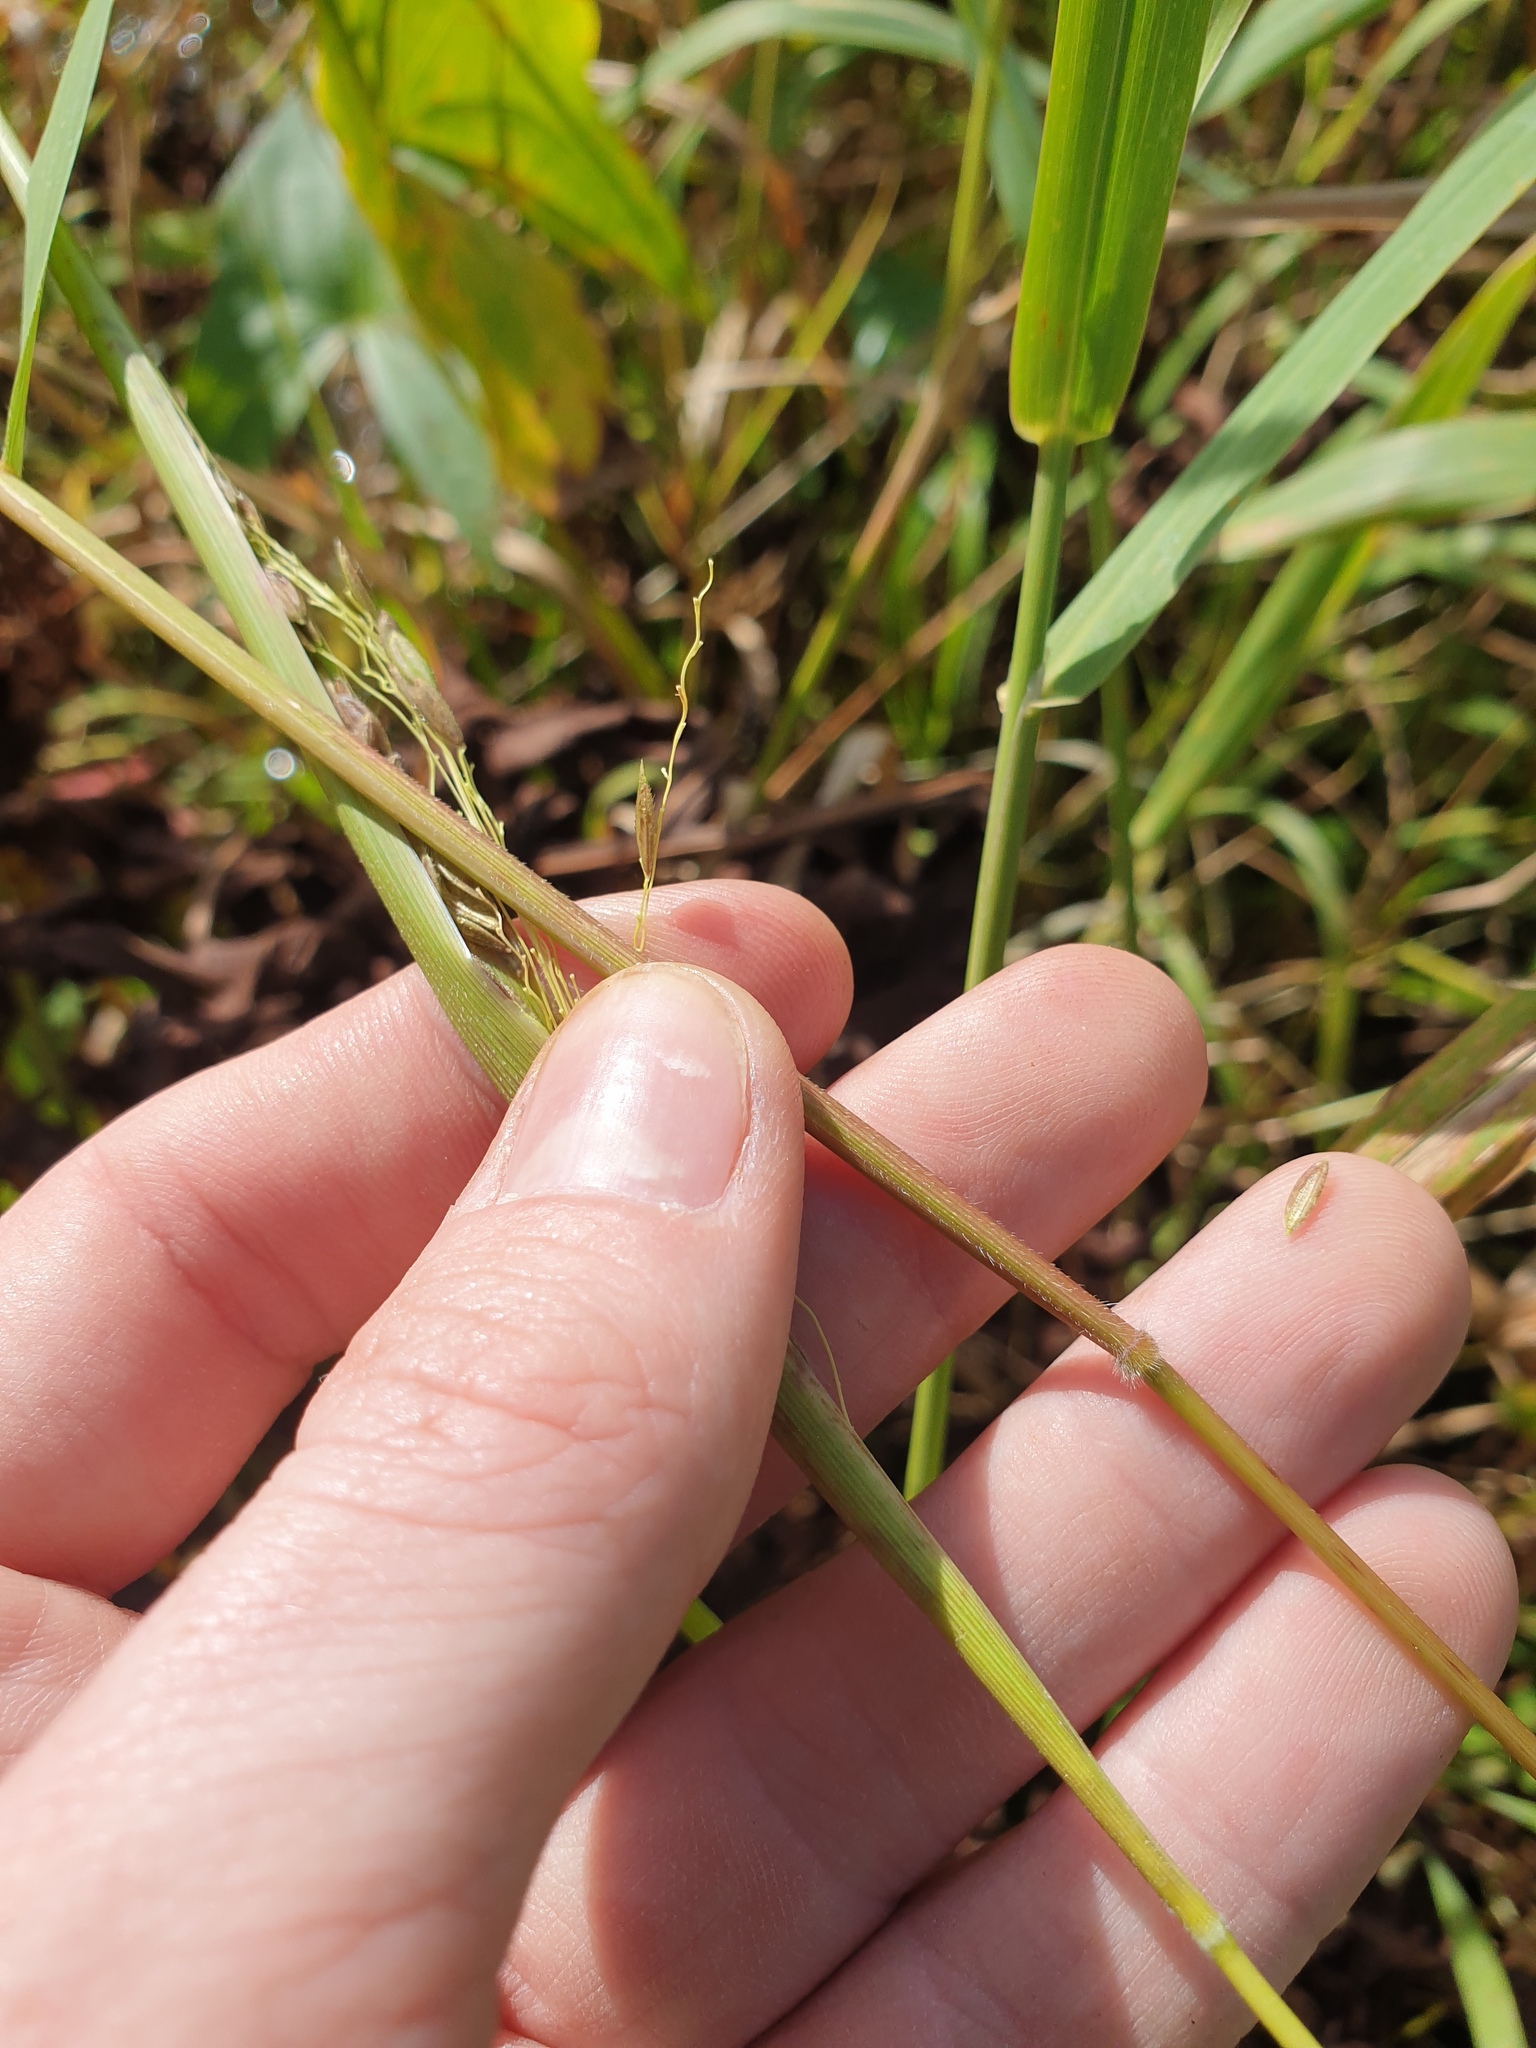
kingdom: Plantae
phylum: Tracheophyta
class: Liliopsida
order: Poales
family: Poaceae
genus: Leersia
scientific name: Leersia oryzoides
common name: Cut-grass
